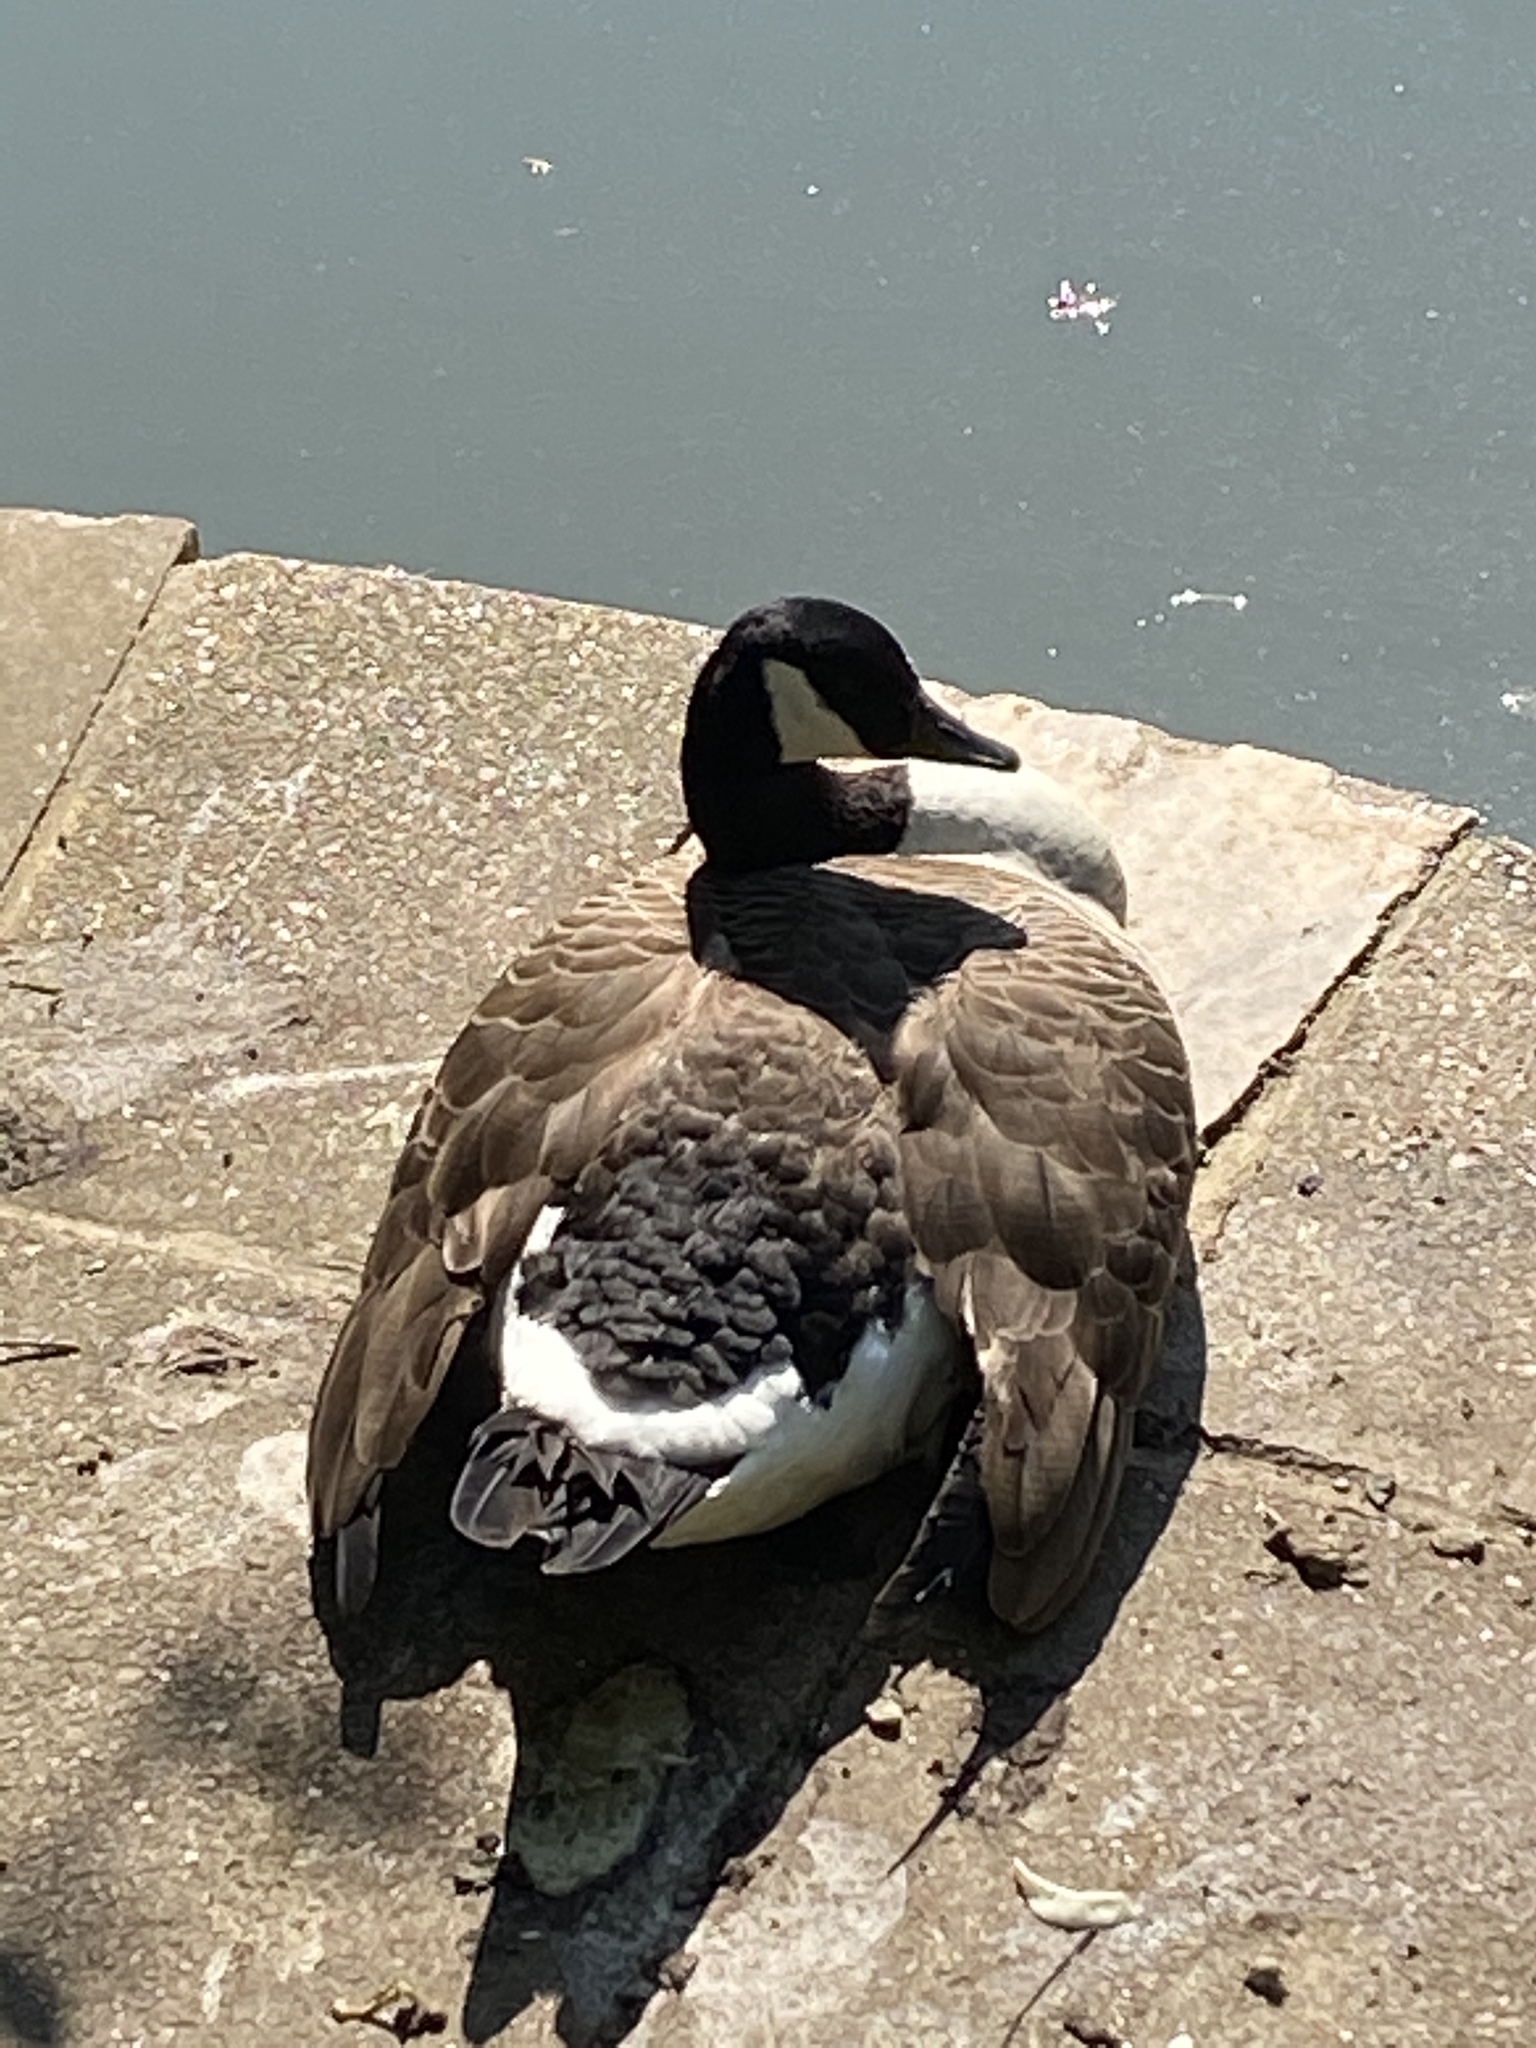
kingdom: Animalia
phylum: Chordata
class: Aves
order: Anseriformes
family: Anatidae
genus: Branta
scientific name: Branta canadensis
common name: Canada goose
